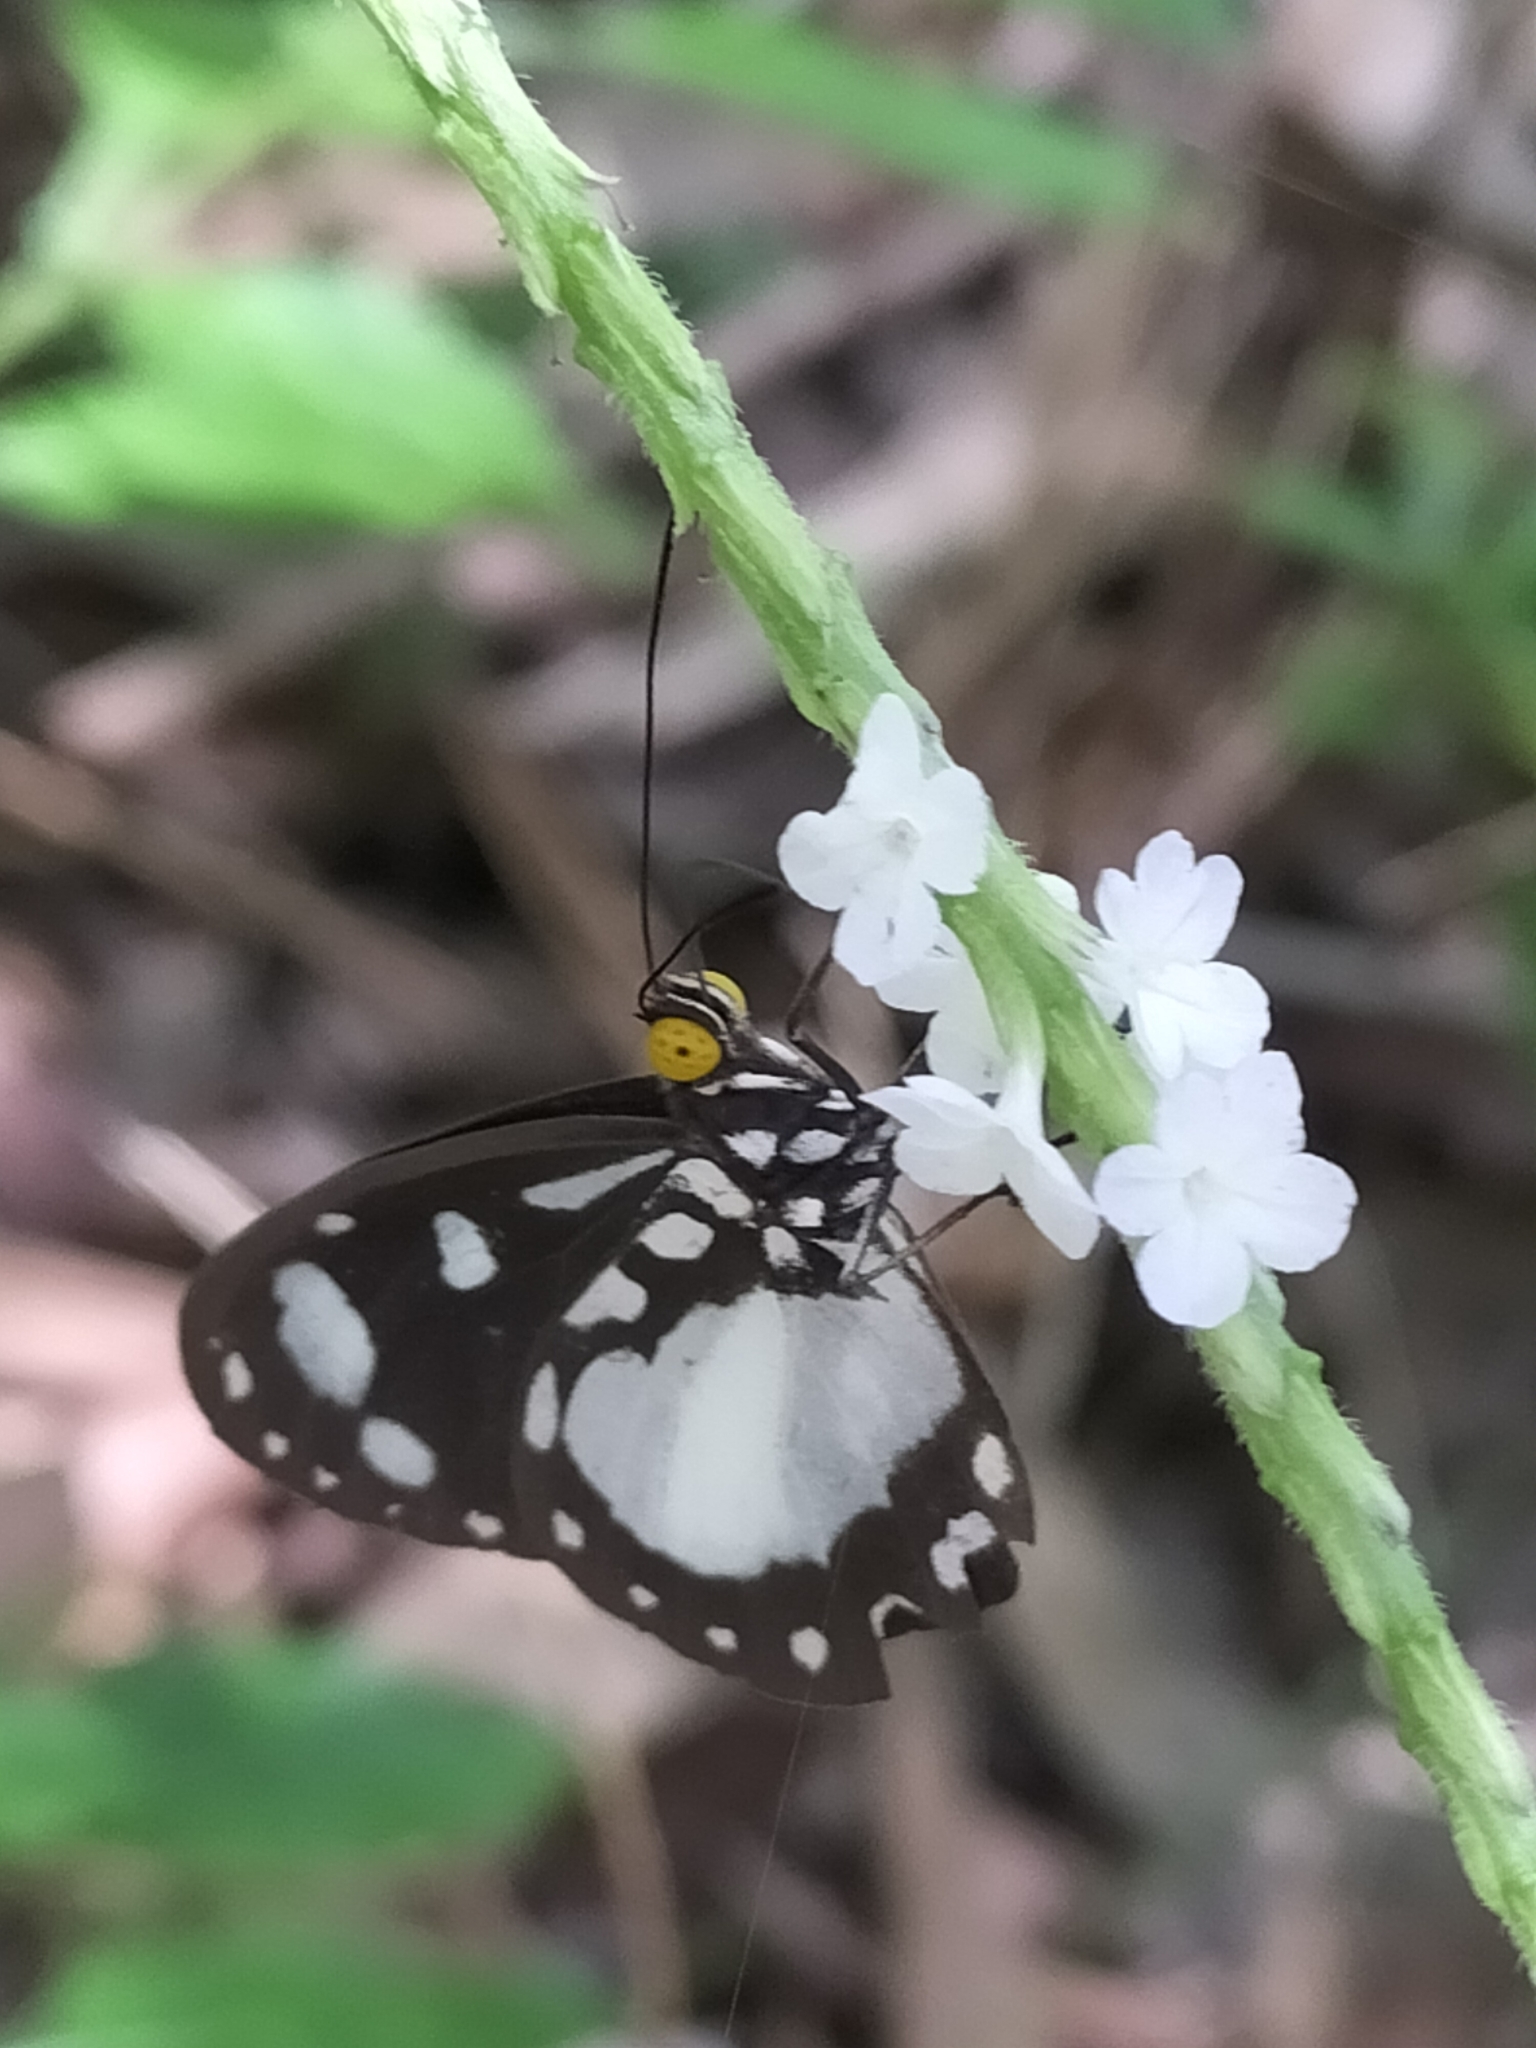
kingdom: Animalia
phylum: Arthropoda
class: Insecta
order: Lepidoptera
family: Nymphalidae
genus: Tellervo
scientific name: Tellervo zoilus
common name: Hamadryad
